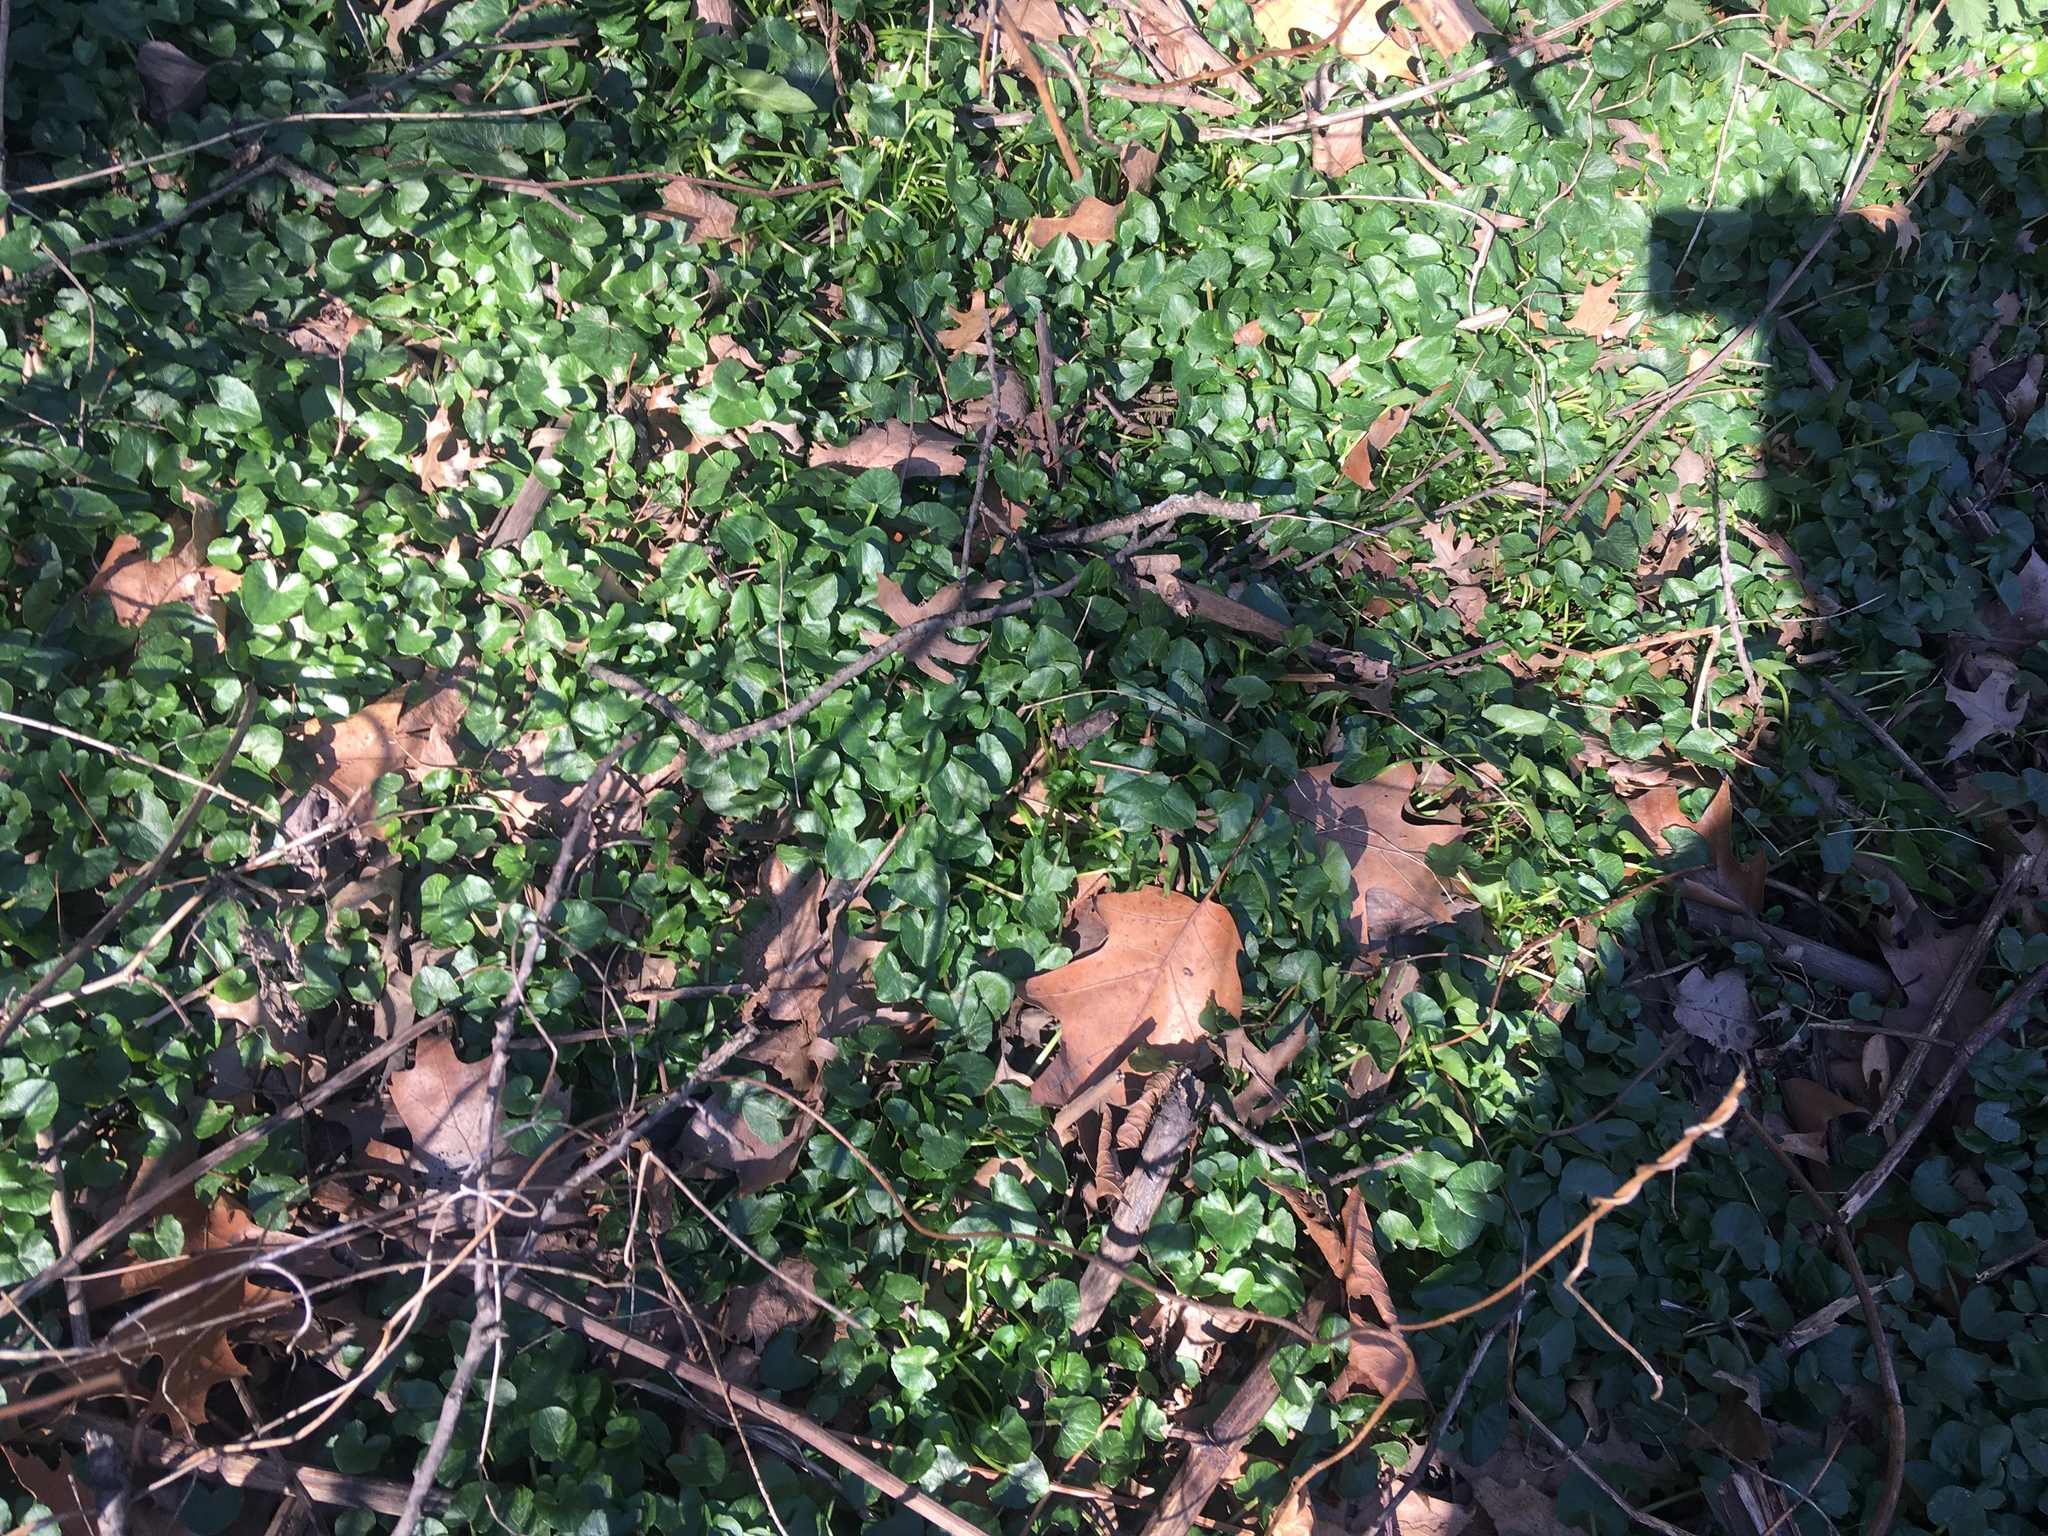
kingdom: Plantae
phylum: Tracheophyta
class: Magnoliopsida
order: Ranunculales
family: Ranunculaceae
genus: Ficaria
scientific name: Ficaria verna
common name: Lesser celandine
